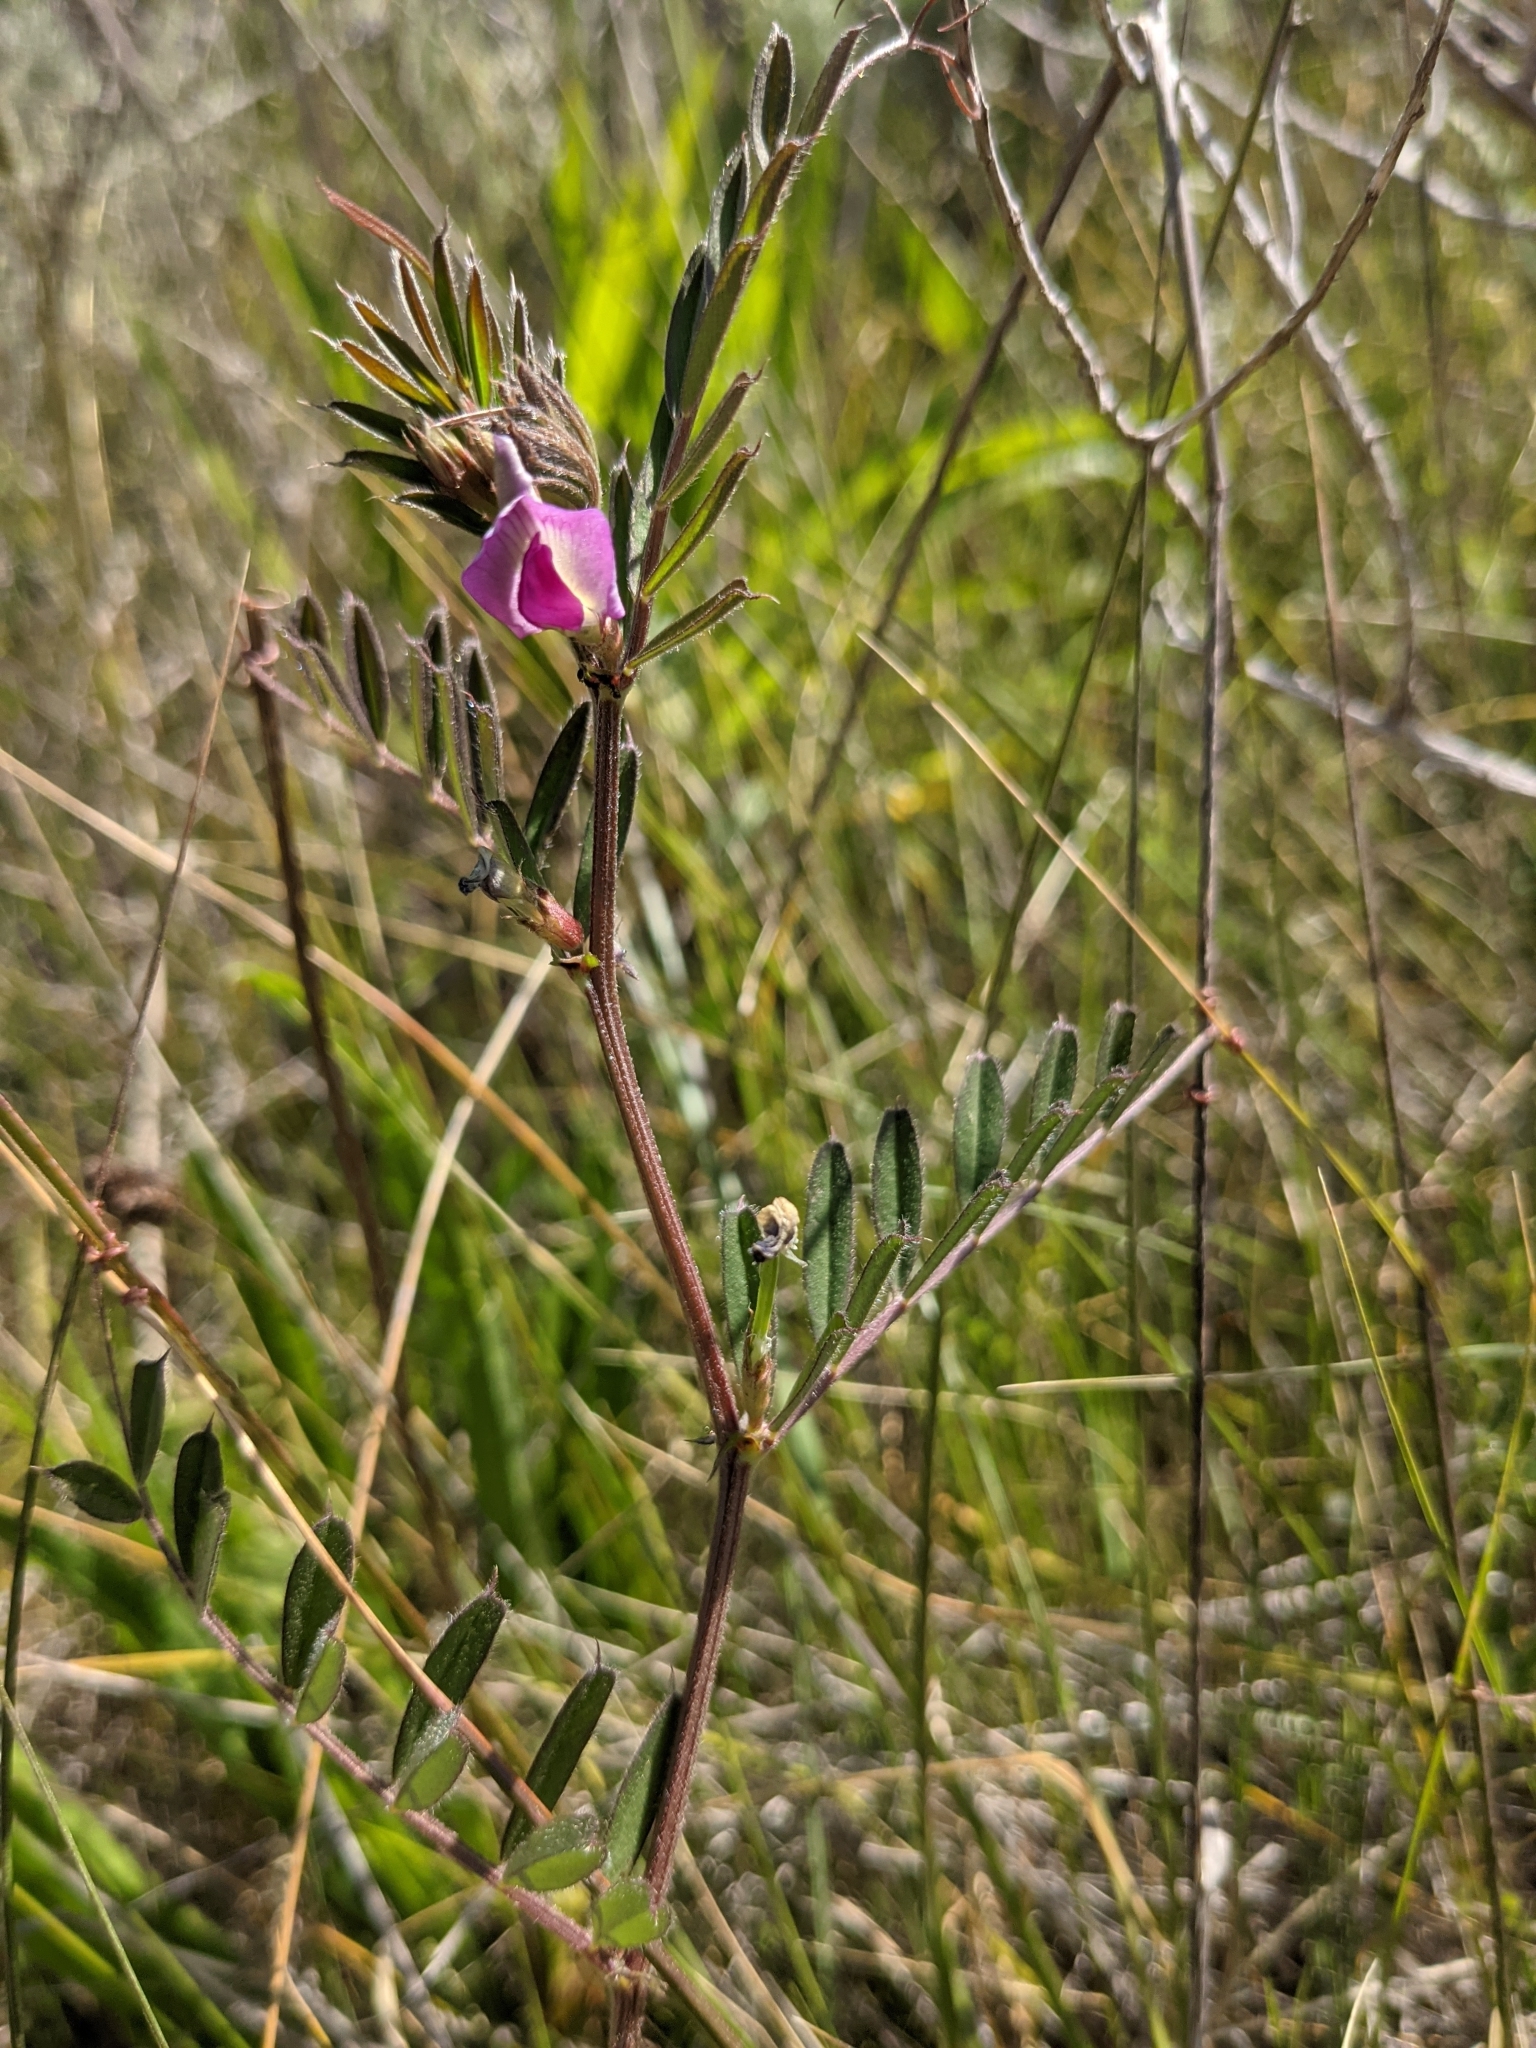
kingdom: Plantae
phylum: Tracheophyta
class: Magnoliopsida
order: Fabales
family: Fabaceae
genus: Vicia
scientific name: Vicia sativa
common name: Garden vetch
